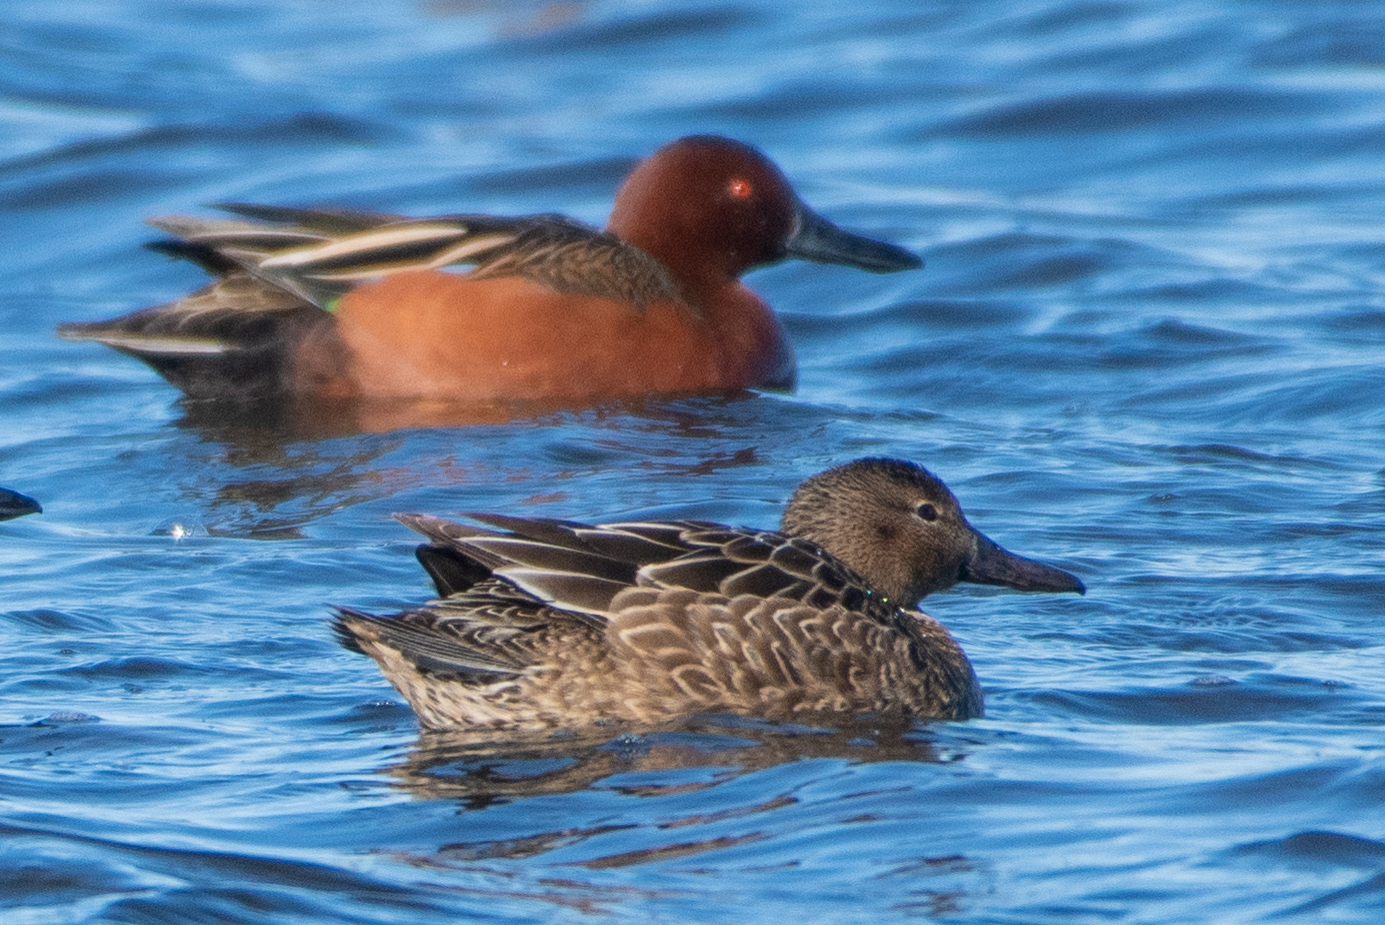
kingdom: Animalia
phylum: Chordata
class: Aves
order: Anseriformes
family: Anatidae
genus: Spatula
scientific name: Spatula cyanoptera
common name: Cinnamon teal
